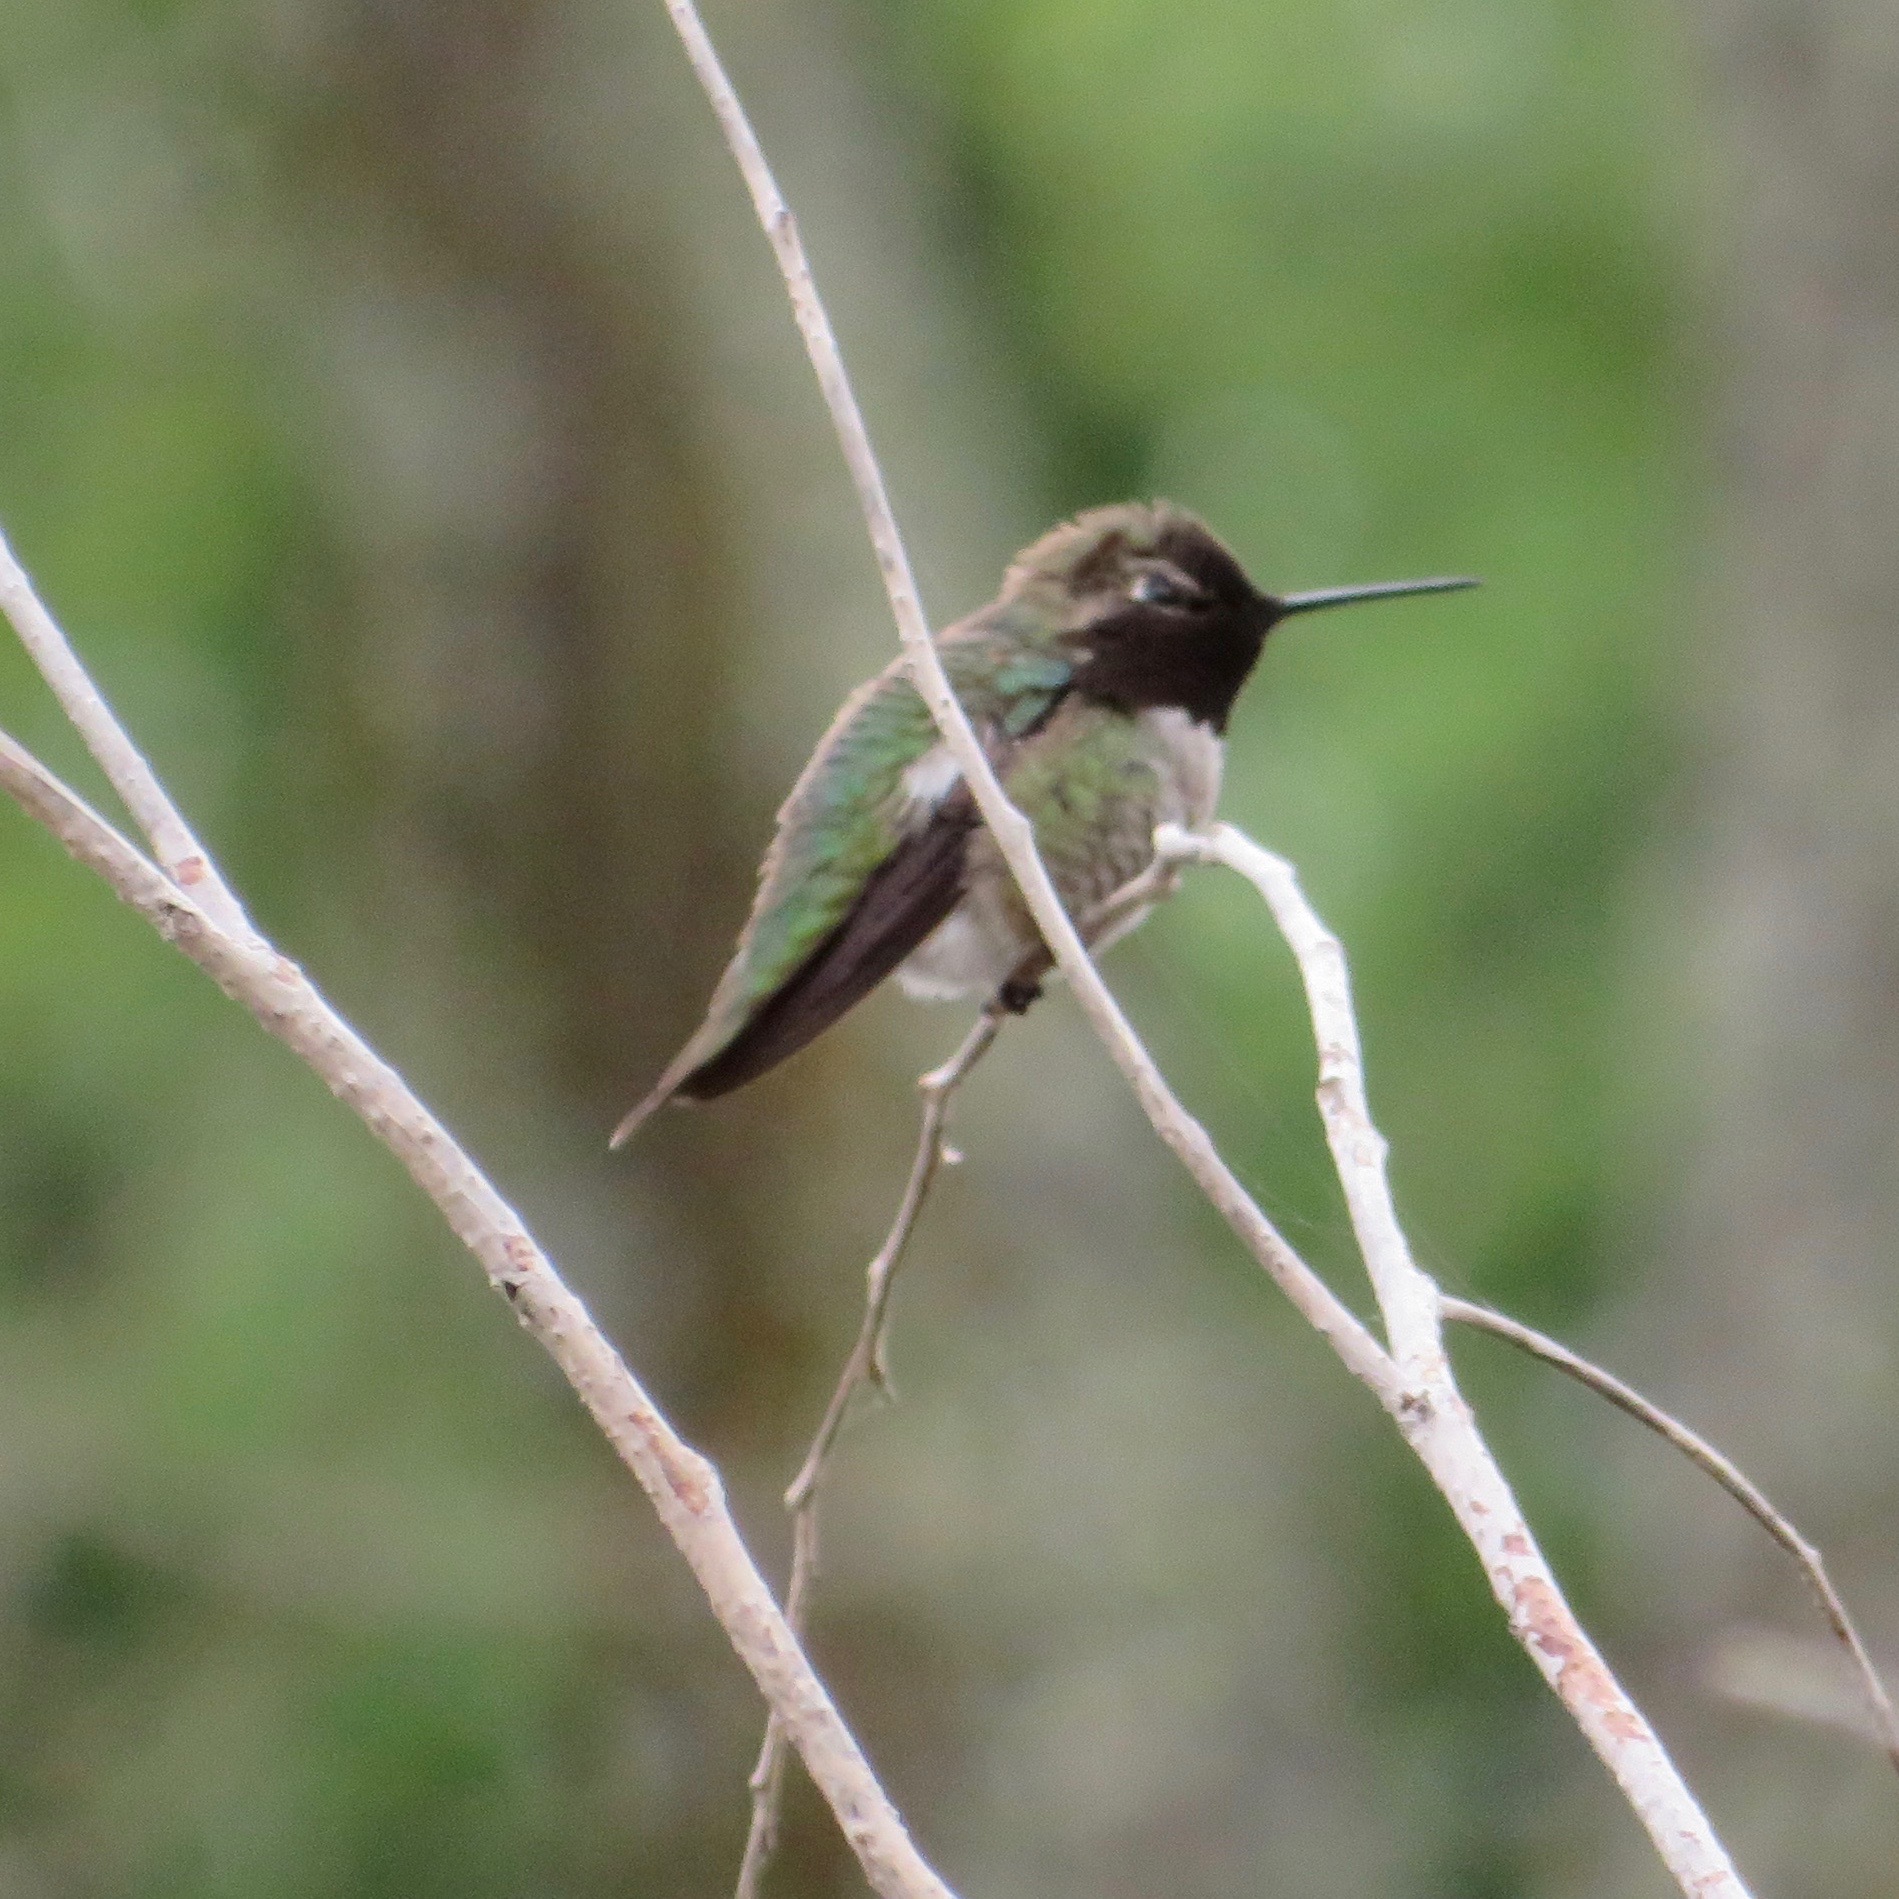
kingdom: Animalia
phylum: Chordata
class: Aves
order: Apodiformes
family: Trochilidae
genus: Calypte
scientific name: Calypte anna
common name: Anna's hummingbird
